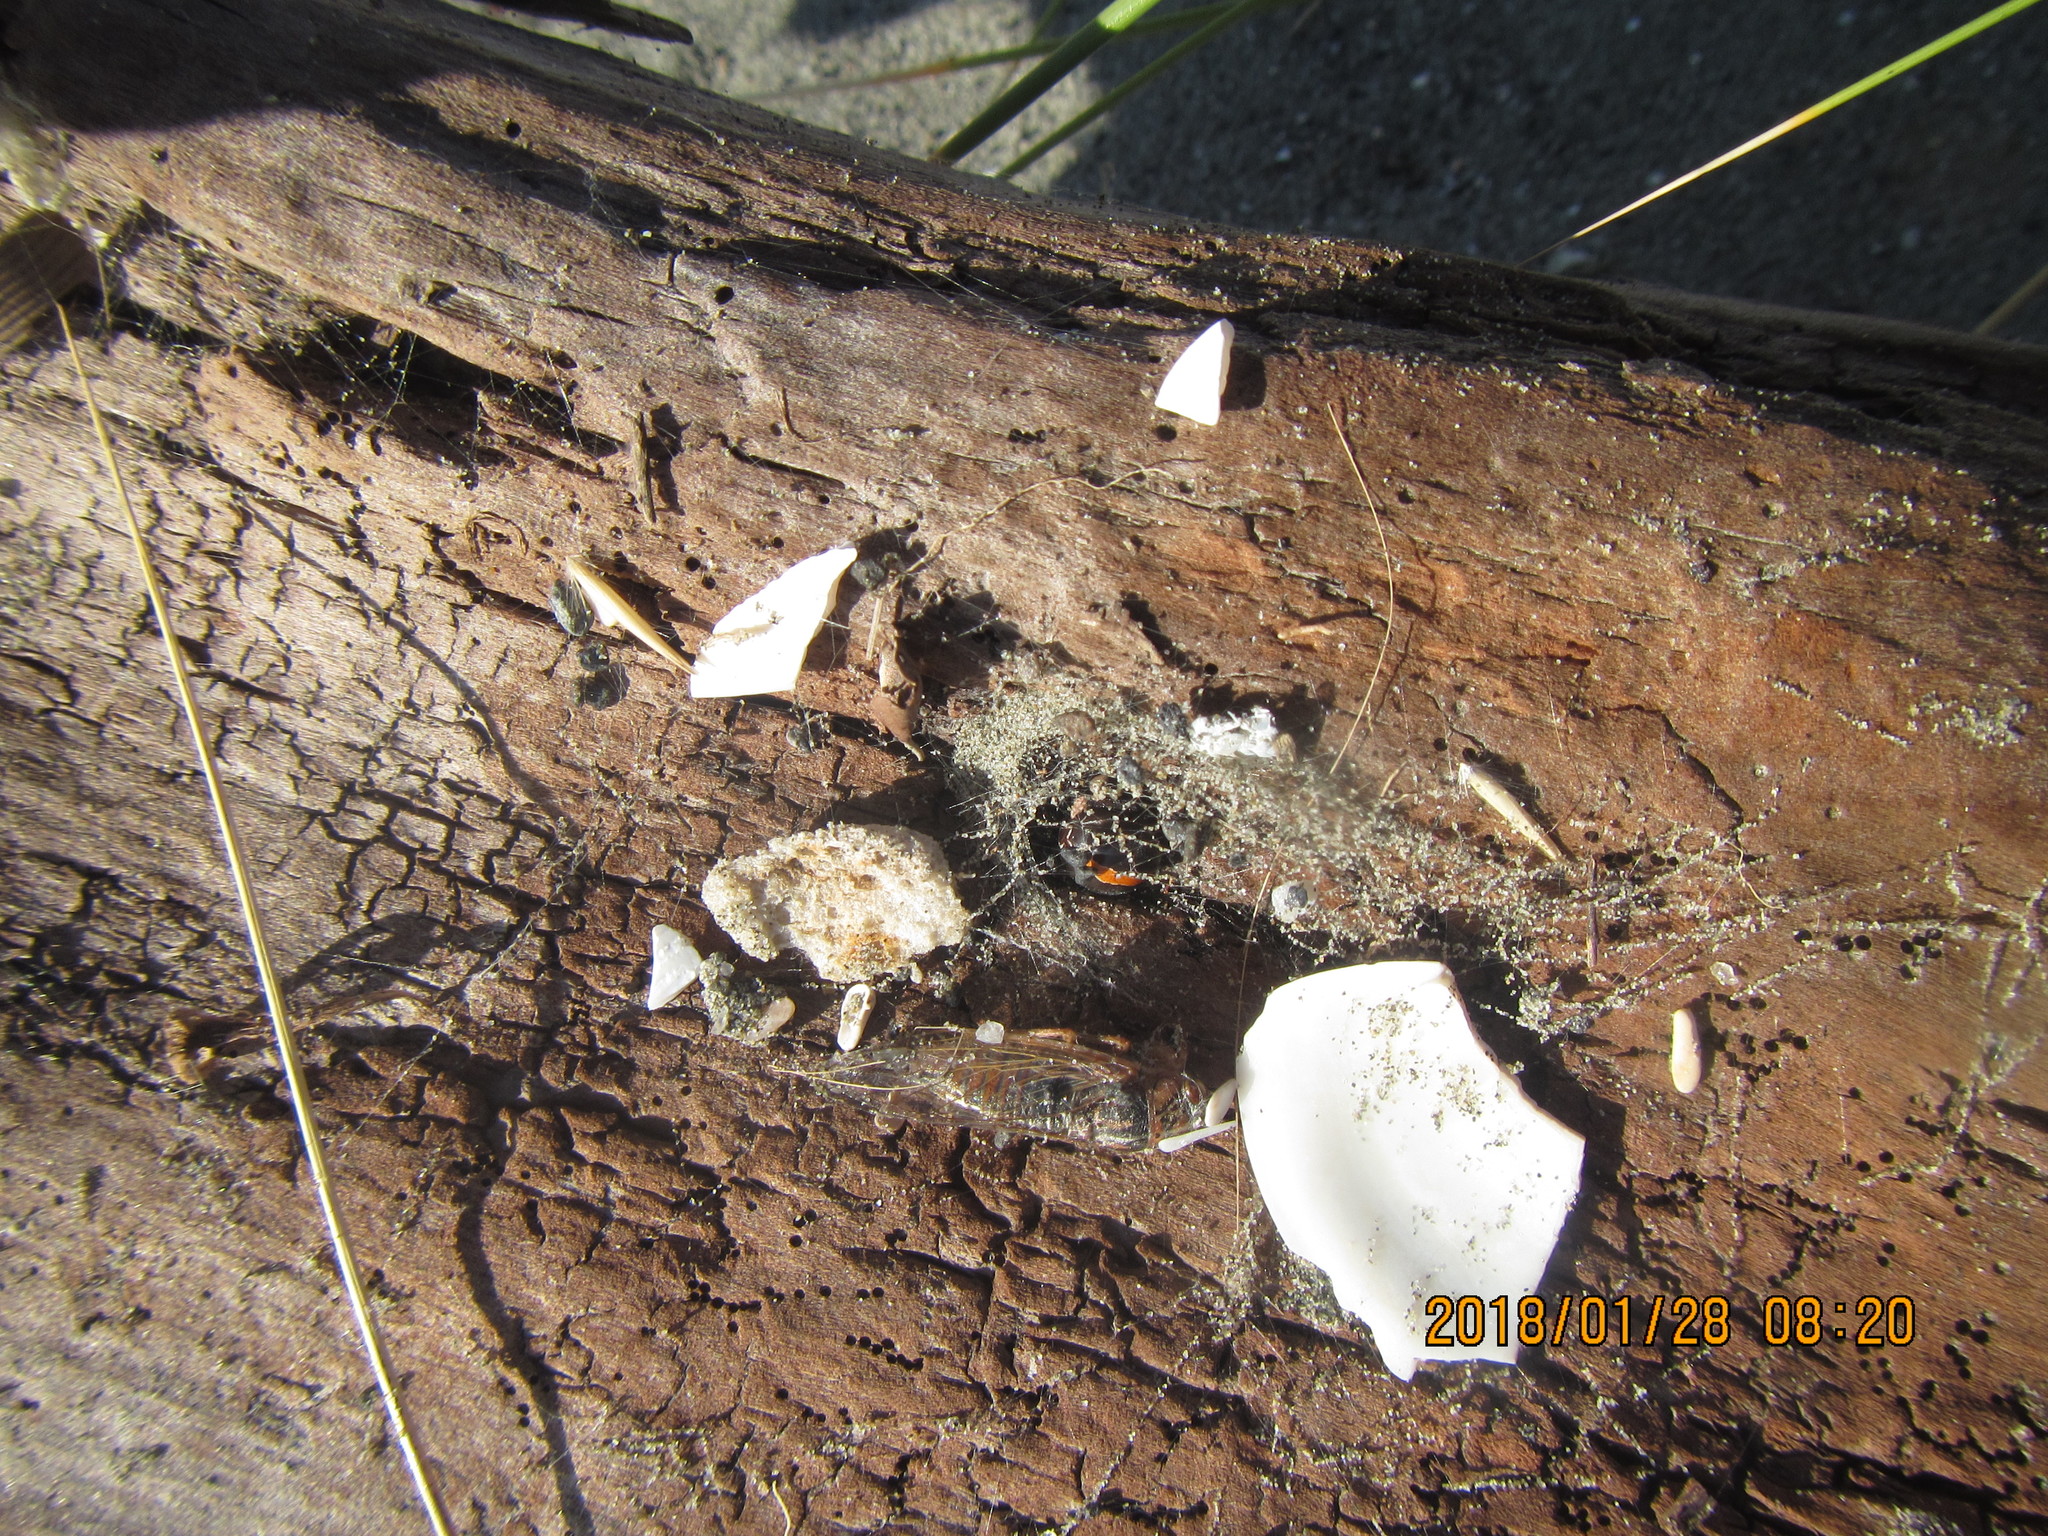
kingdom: Animalia
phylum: Arthropoda
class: Arachnida
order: Araneae
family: Theridiidae
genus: Latrodectus
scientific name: Latrodectus katipo
